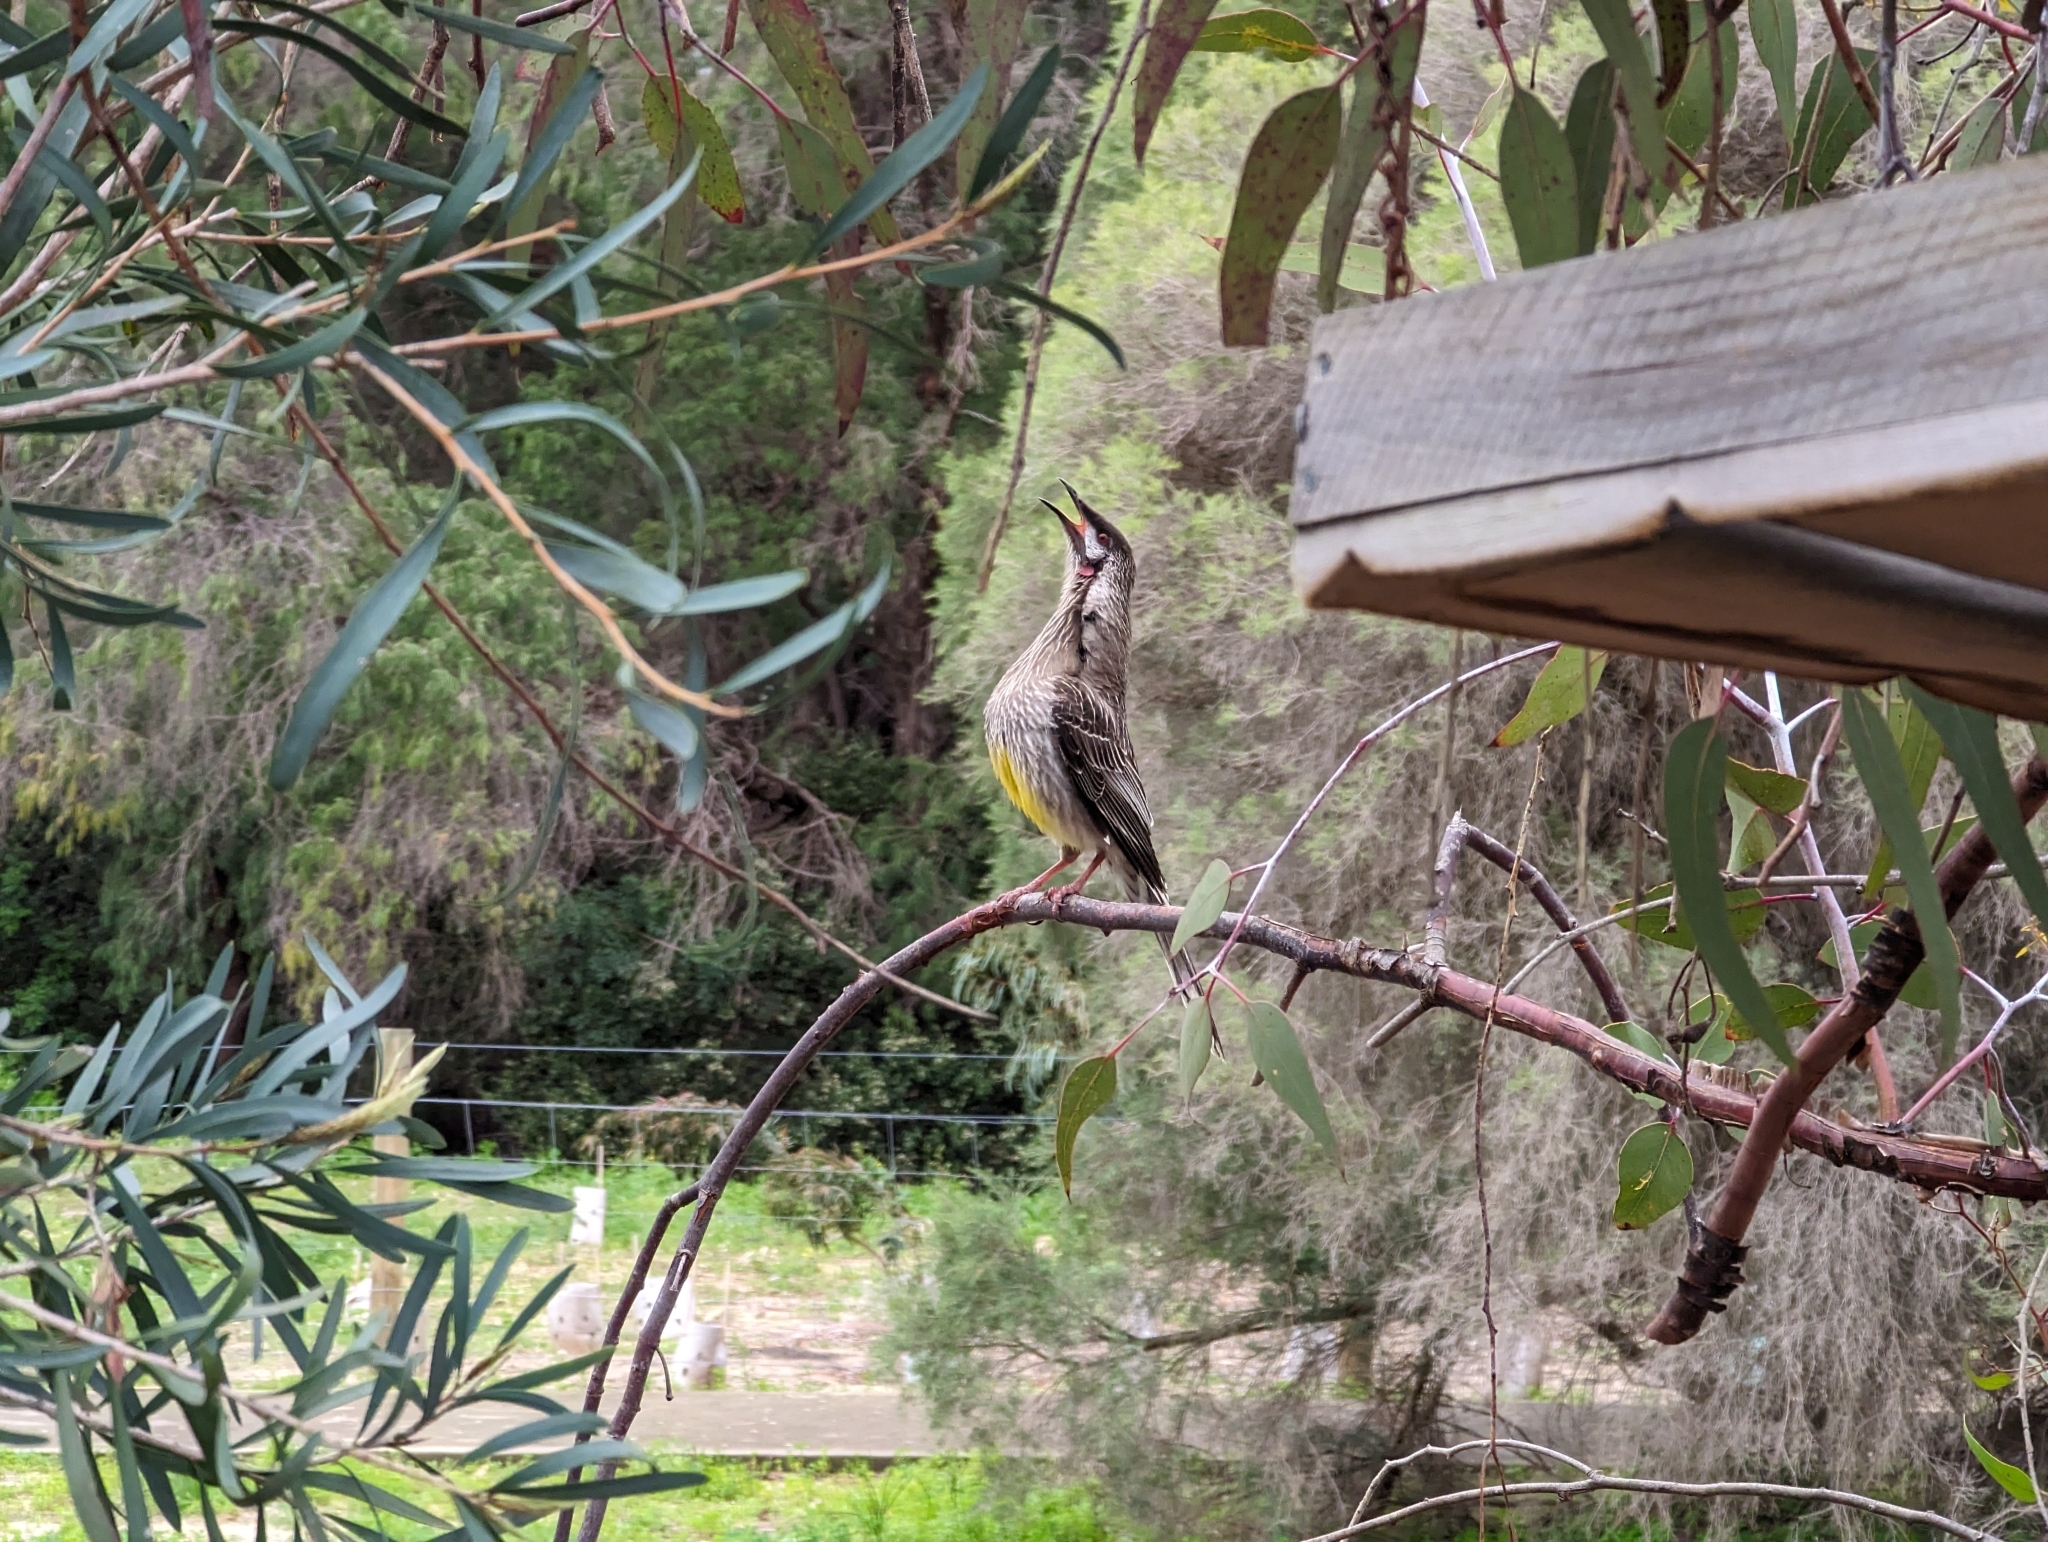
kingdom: Animalia
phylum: Chordata
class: Aves
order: Passeriformes
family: Meliphagidae
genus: Anthochaera
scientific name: Anthochaera carunculata
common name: Red wattlebird
